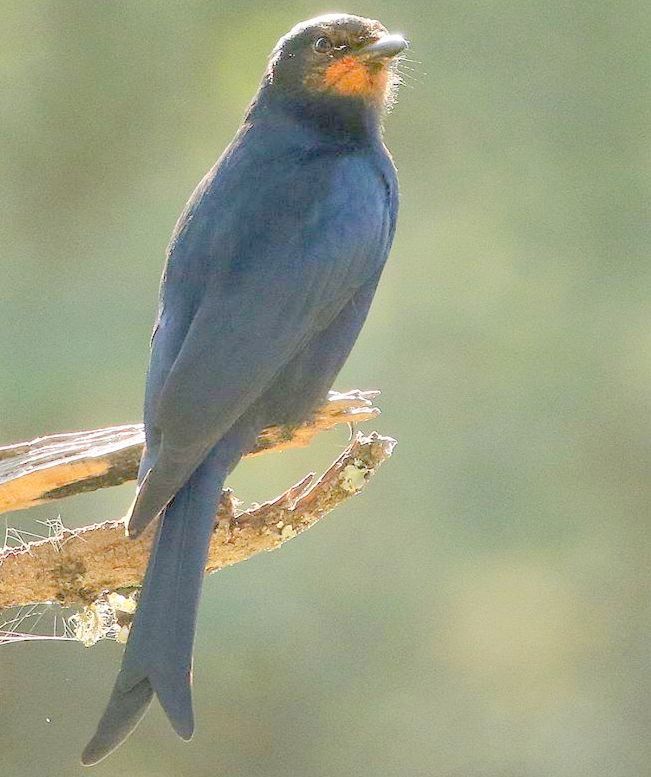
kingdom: Animalia
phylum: Chordata
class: Aves
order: Passeriformes
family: Dicruridae
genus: Dicrurus
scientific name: Dicrurus adsimilis
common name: Fork-tailed drongo
